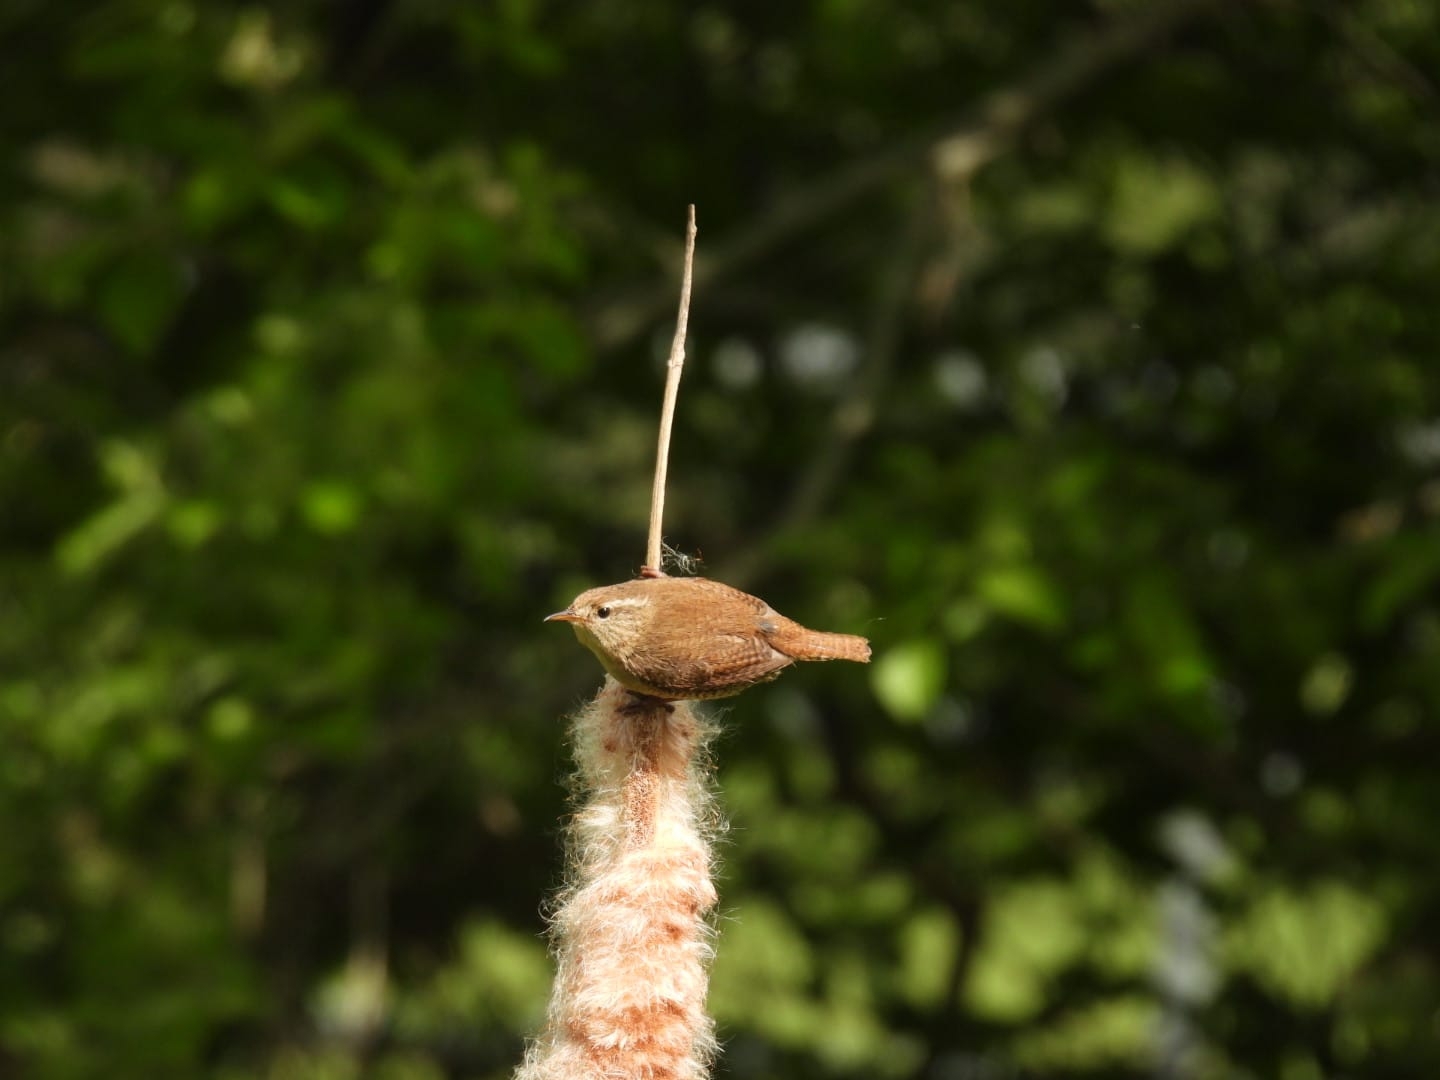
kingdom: Animalia
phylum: Chordata
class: Aves
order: Passeriformes
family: Troglodytidae
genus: Troglodytes
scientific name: Troglodytes troglodytes
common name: Eurasian wren
